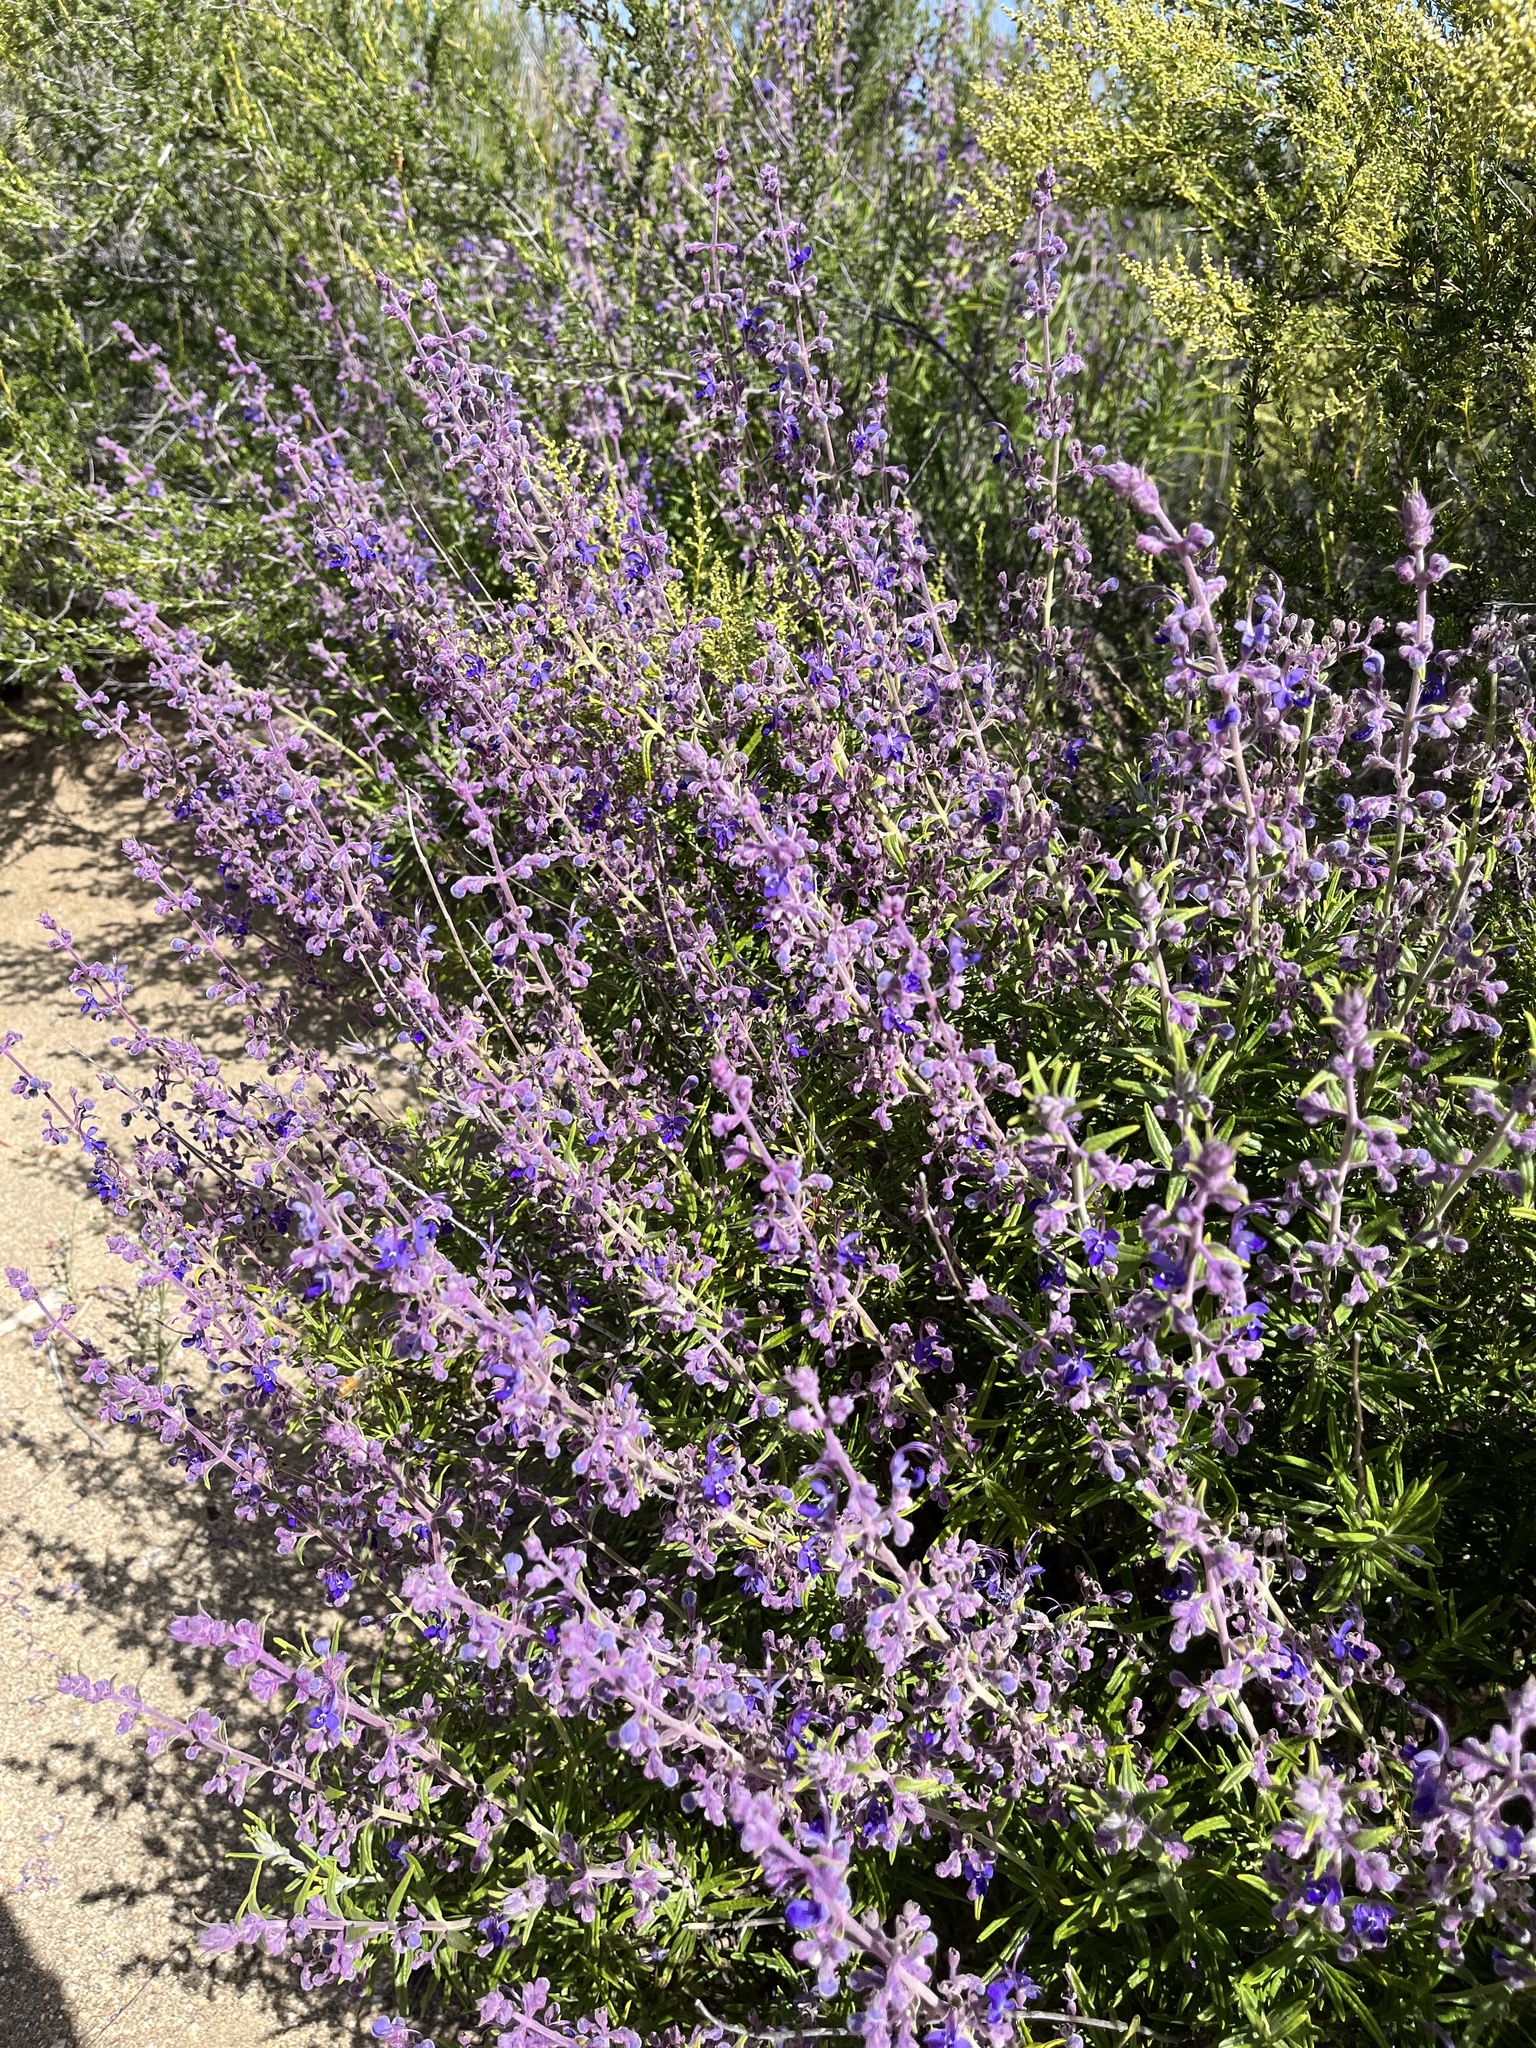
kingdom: Plantae
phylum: Tracheophyta
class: Magnoliopsida
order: Lamiales
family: Lamiaceae
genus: Trichostema
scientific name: Trichostema parishii
